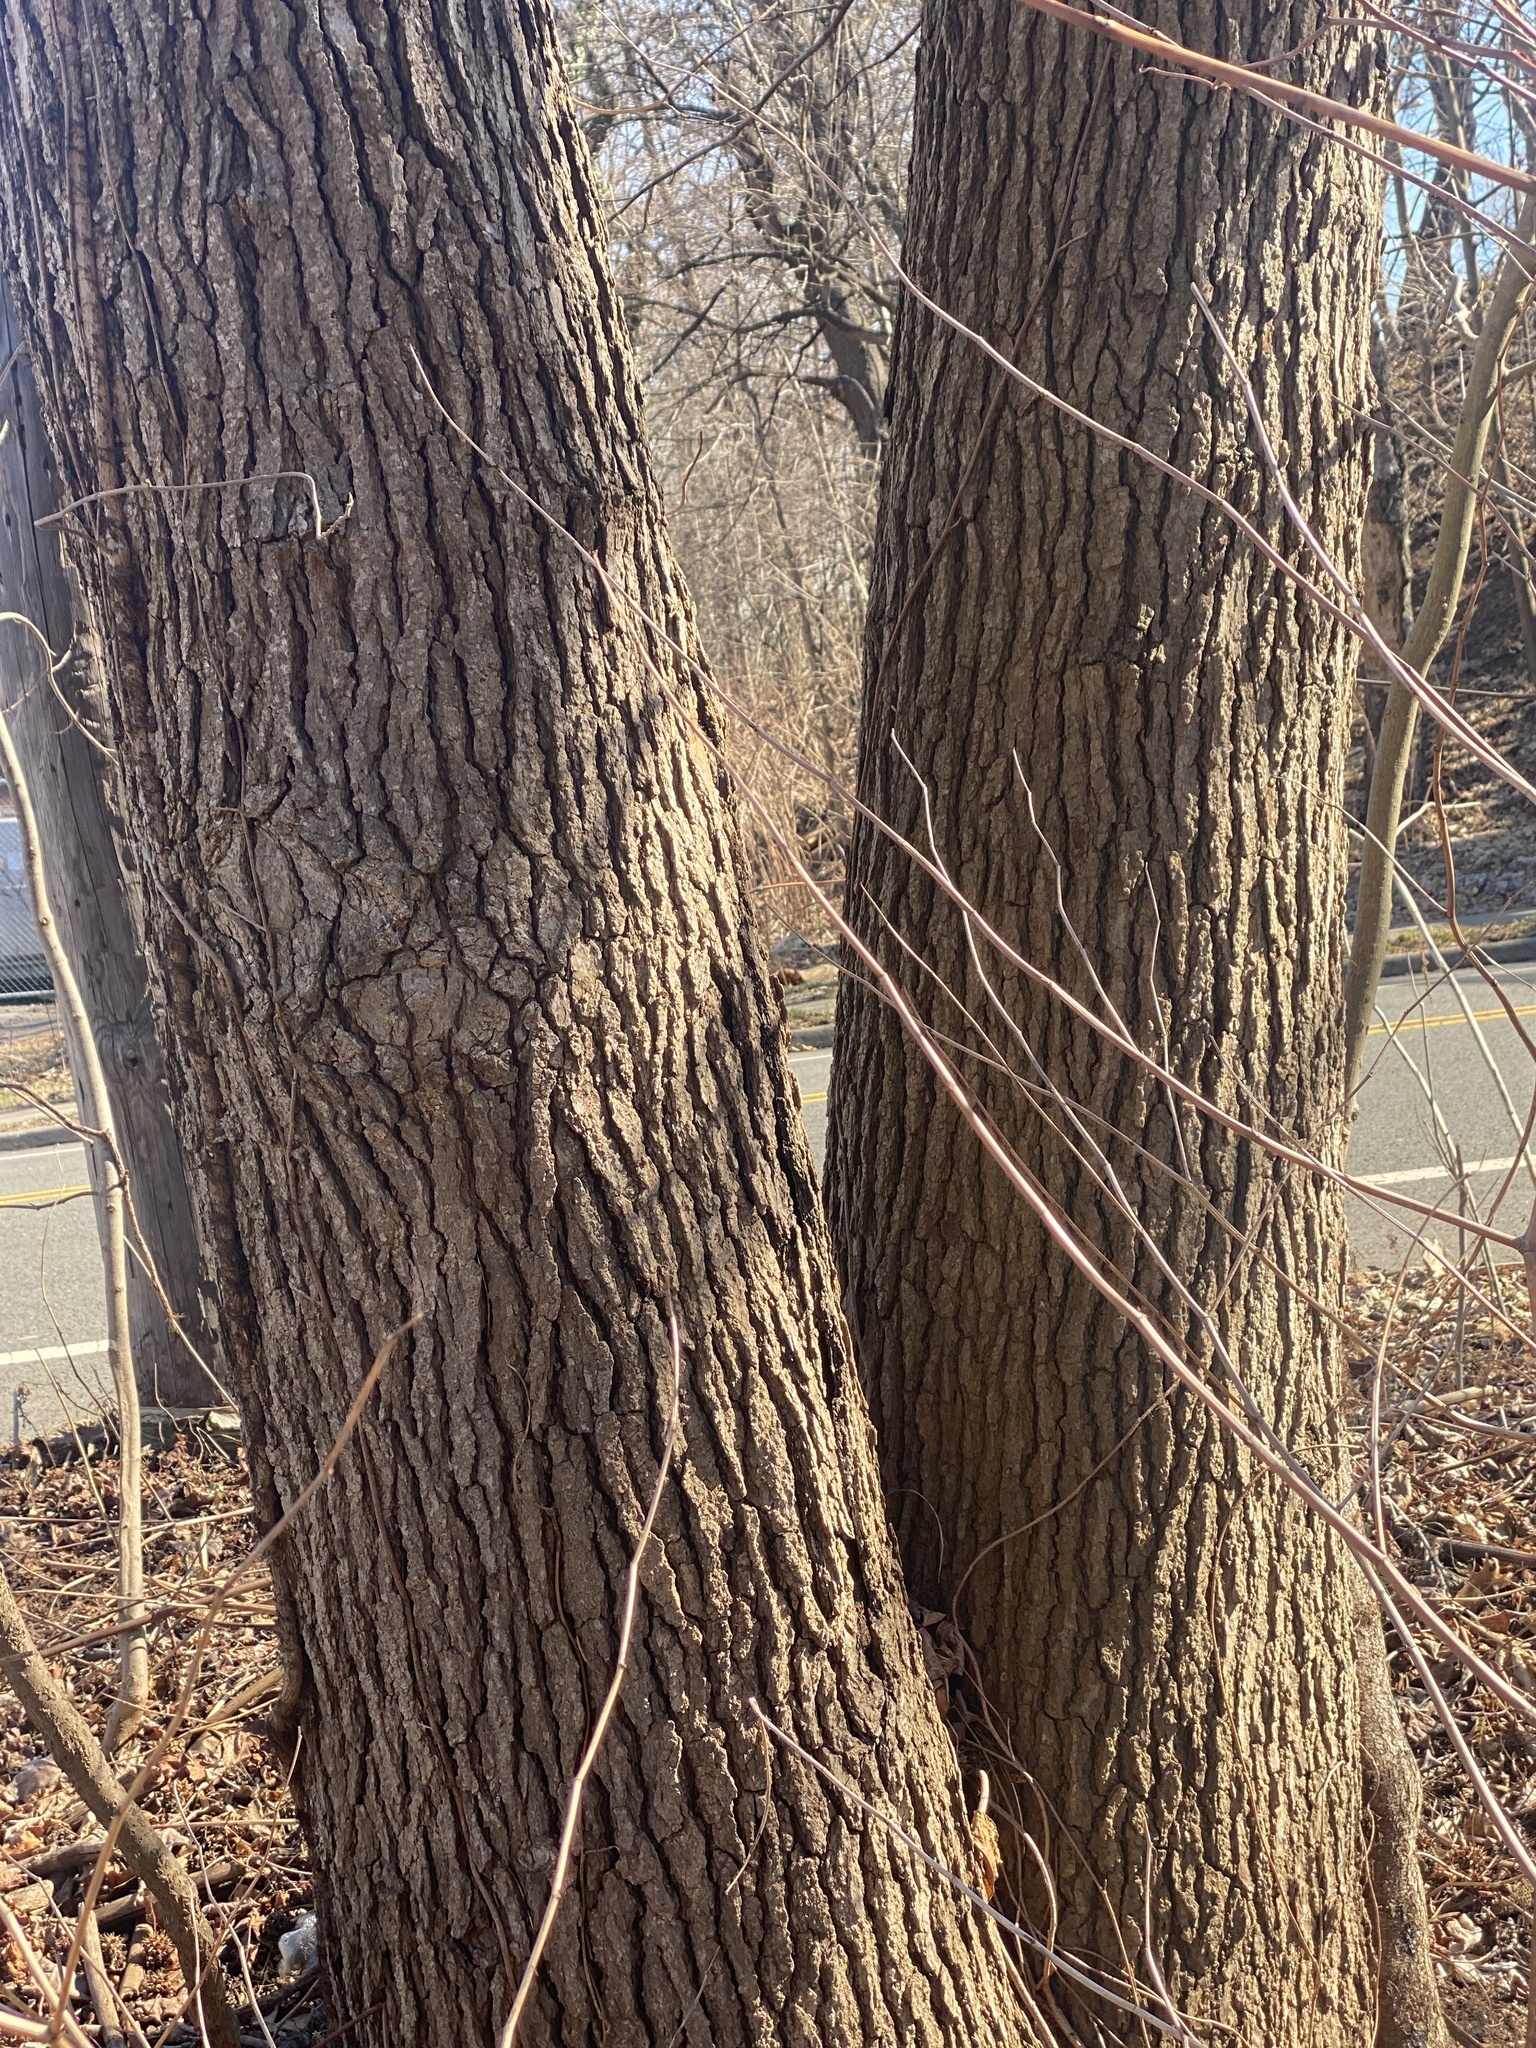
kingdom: Plantae
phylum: Tracheophyta
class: Magnoliopsida
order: Saxifragales
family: Altingiaceae
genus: Liquidambar
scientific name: Liquidambar styraciflua
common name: Sweet gum
